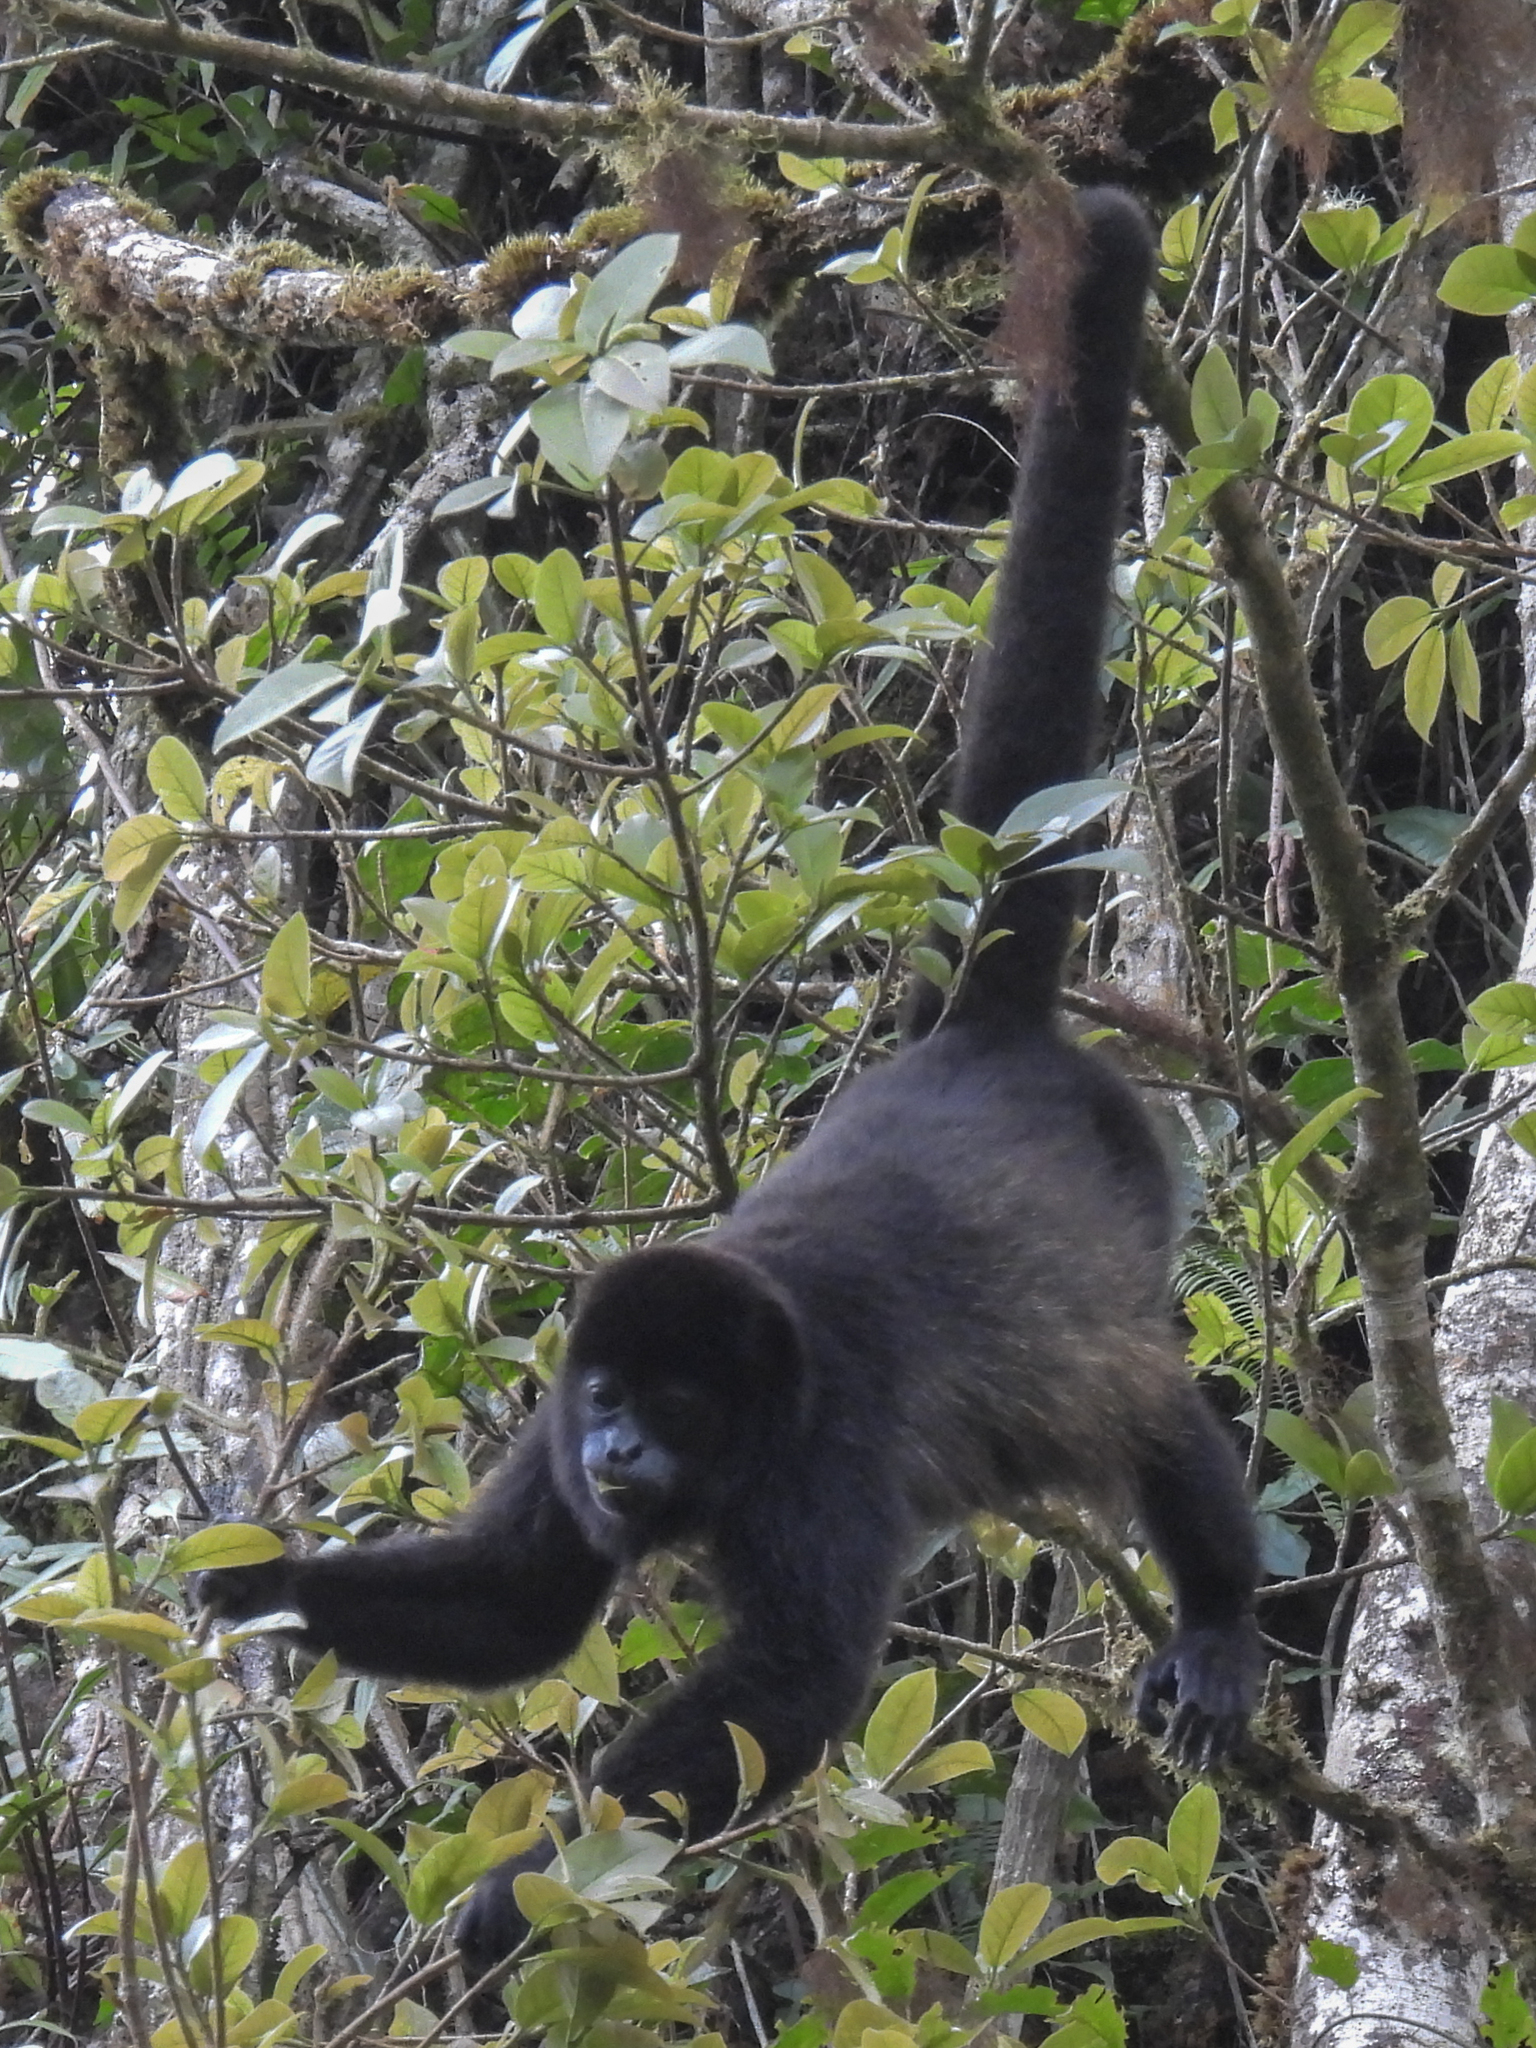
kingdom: Animalia
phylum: Chordata
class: Mammalia
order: Primates
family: Atelidae
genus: Alouatta
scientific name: Alouatta palliata
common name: Mantled howler
